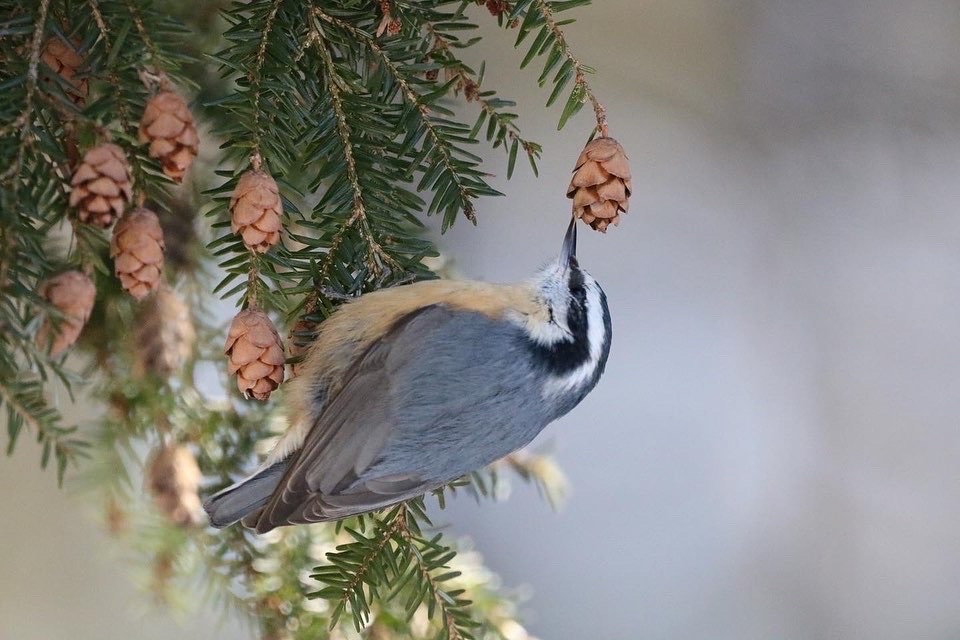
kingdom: Animalia
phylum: Chordata
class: Aves
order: Passeriformes
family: Sittidae
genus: Sitta
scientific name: Sitta canadensis
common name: Red-breasted nuthatch
